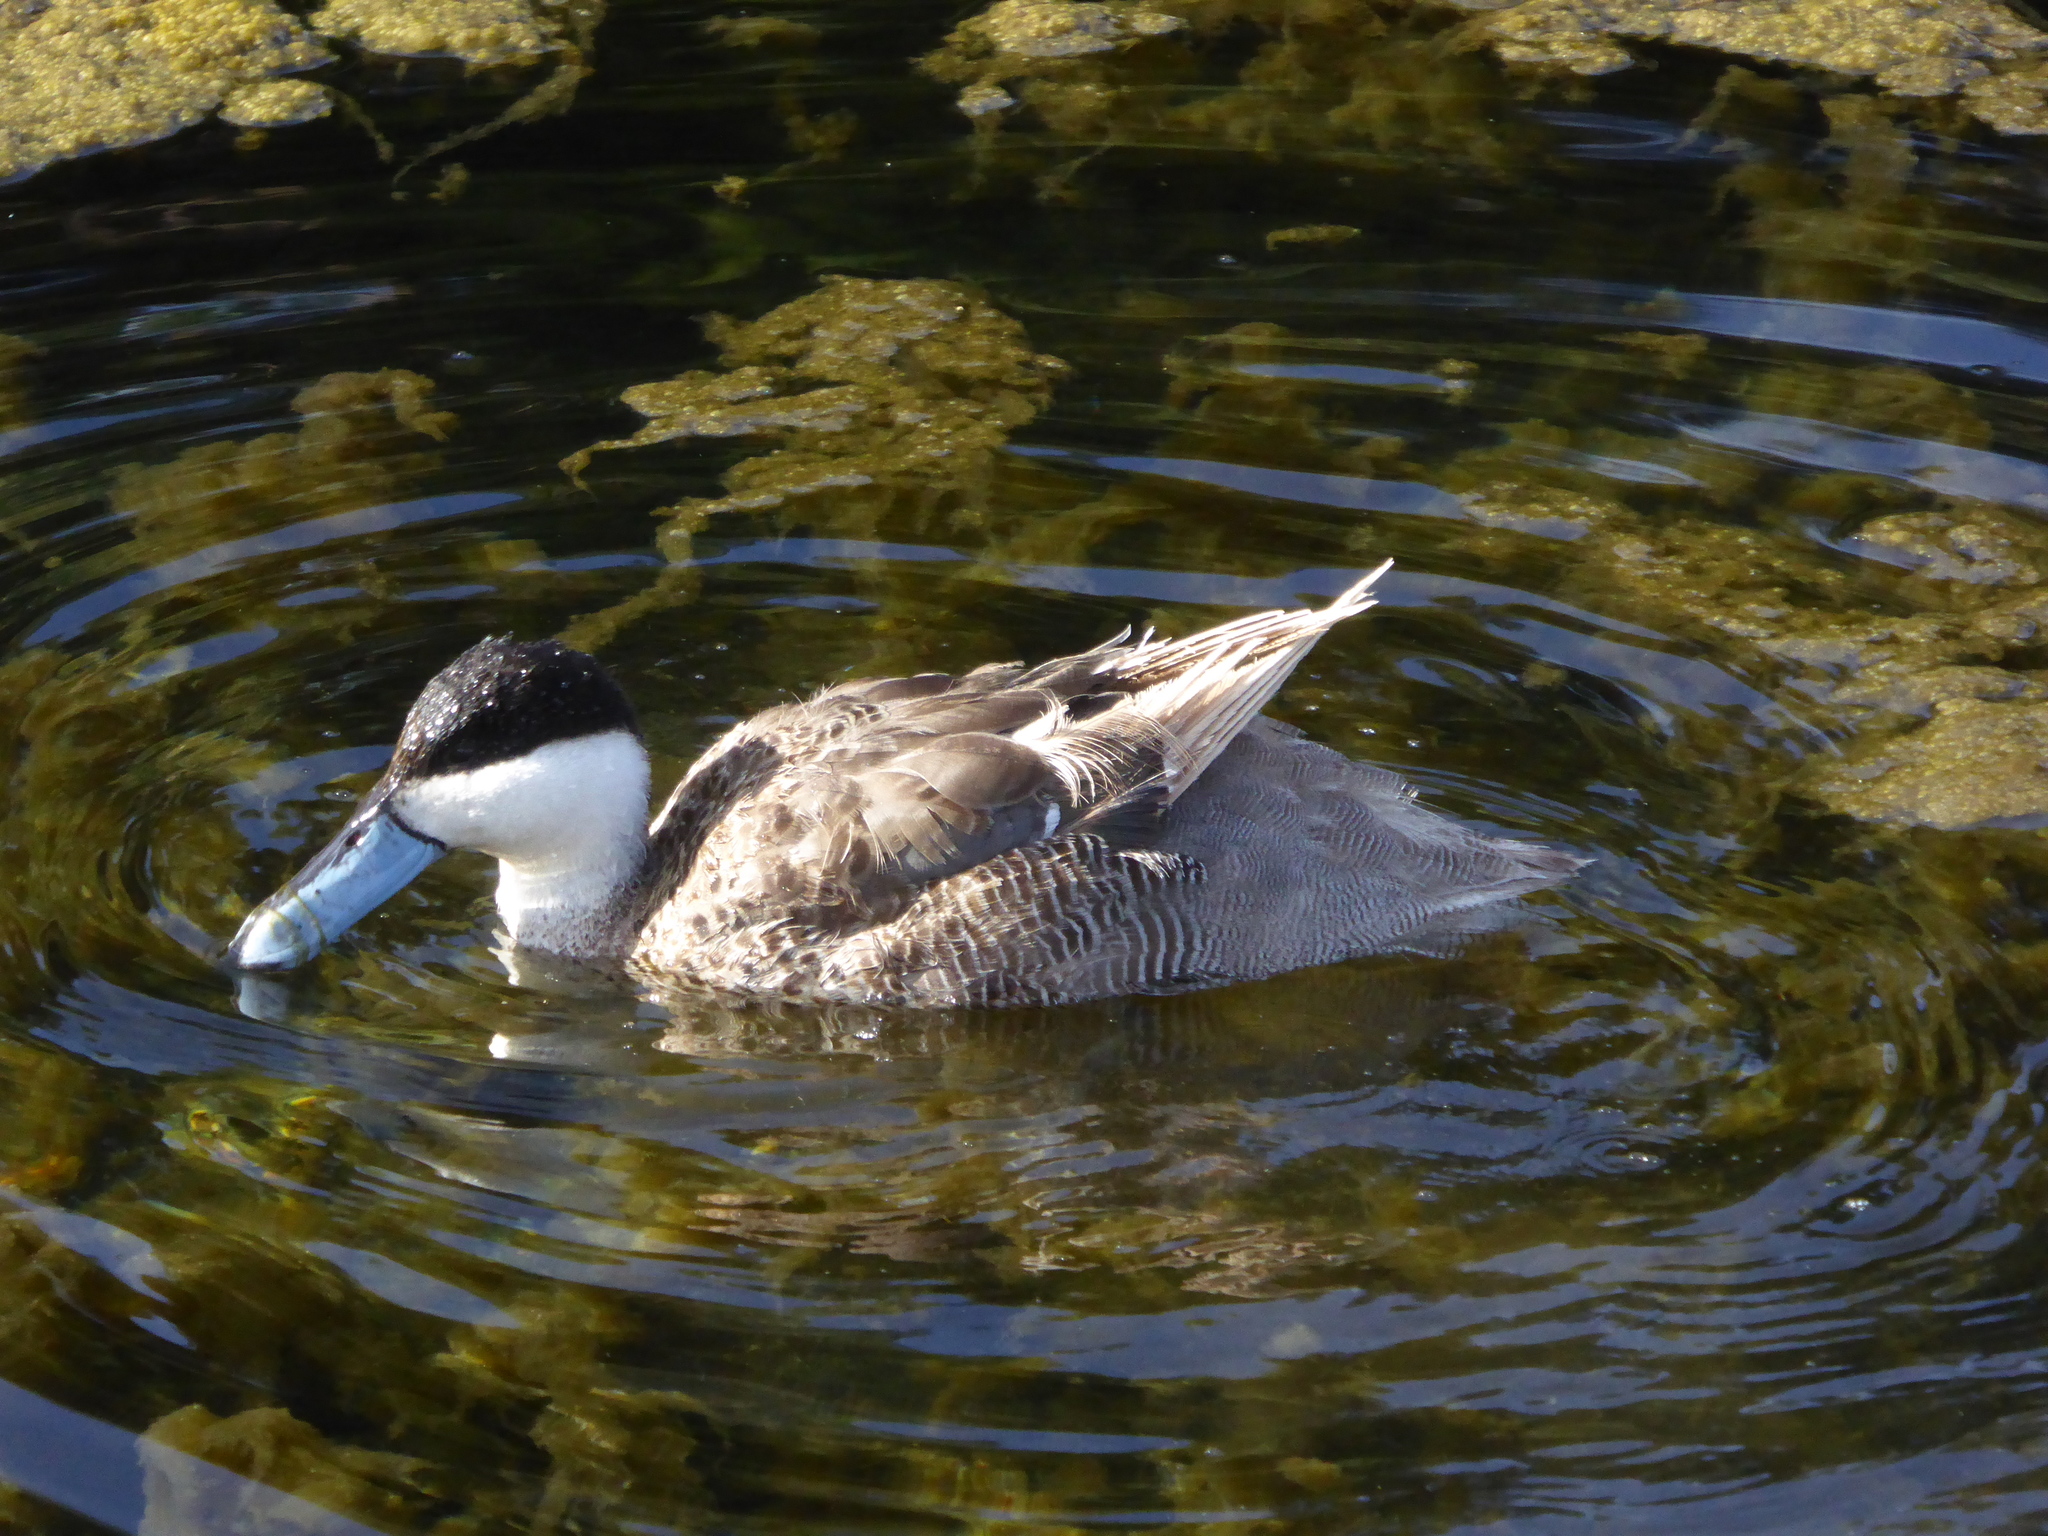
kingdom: Animalia
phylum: Chordata
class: Aves
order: Anseriformes
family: Anatidae
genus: Spatula
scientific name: Spatula puna
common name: Puna teal
